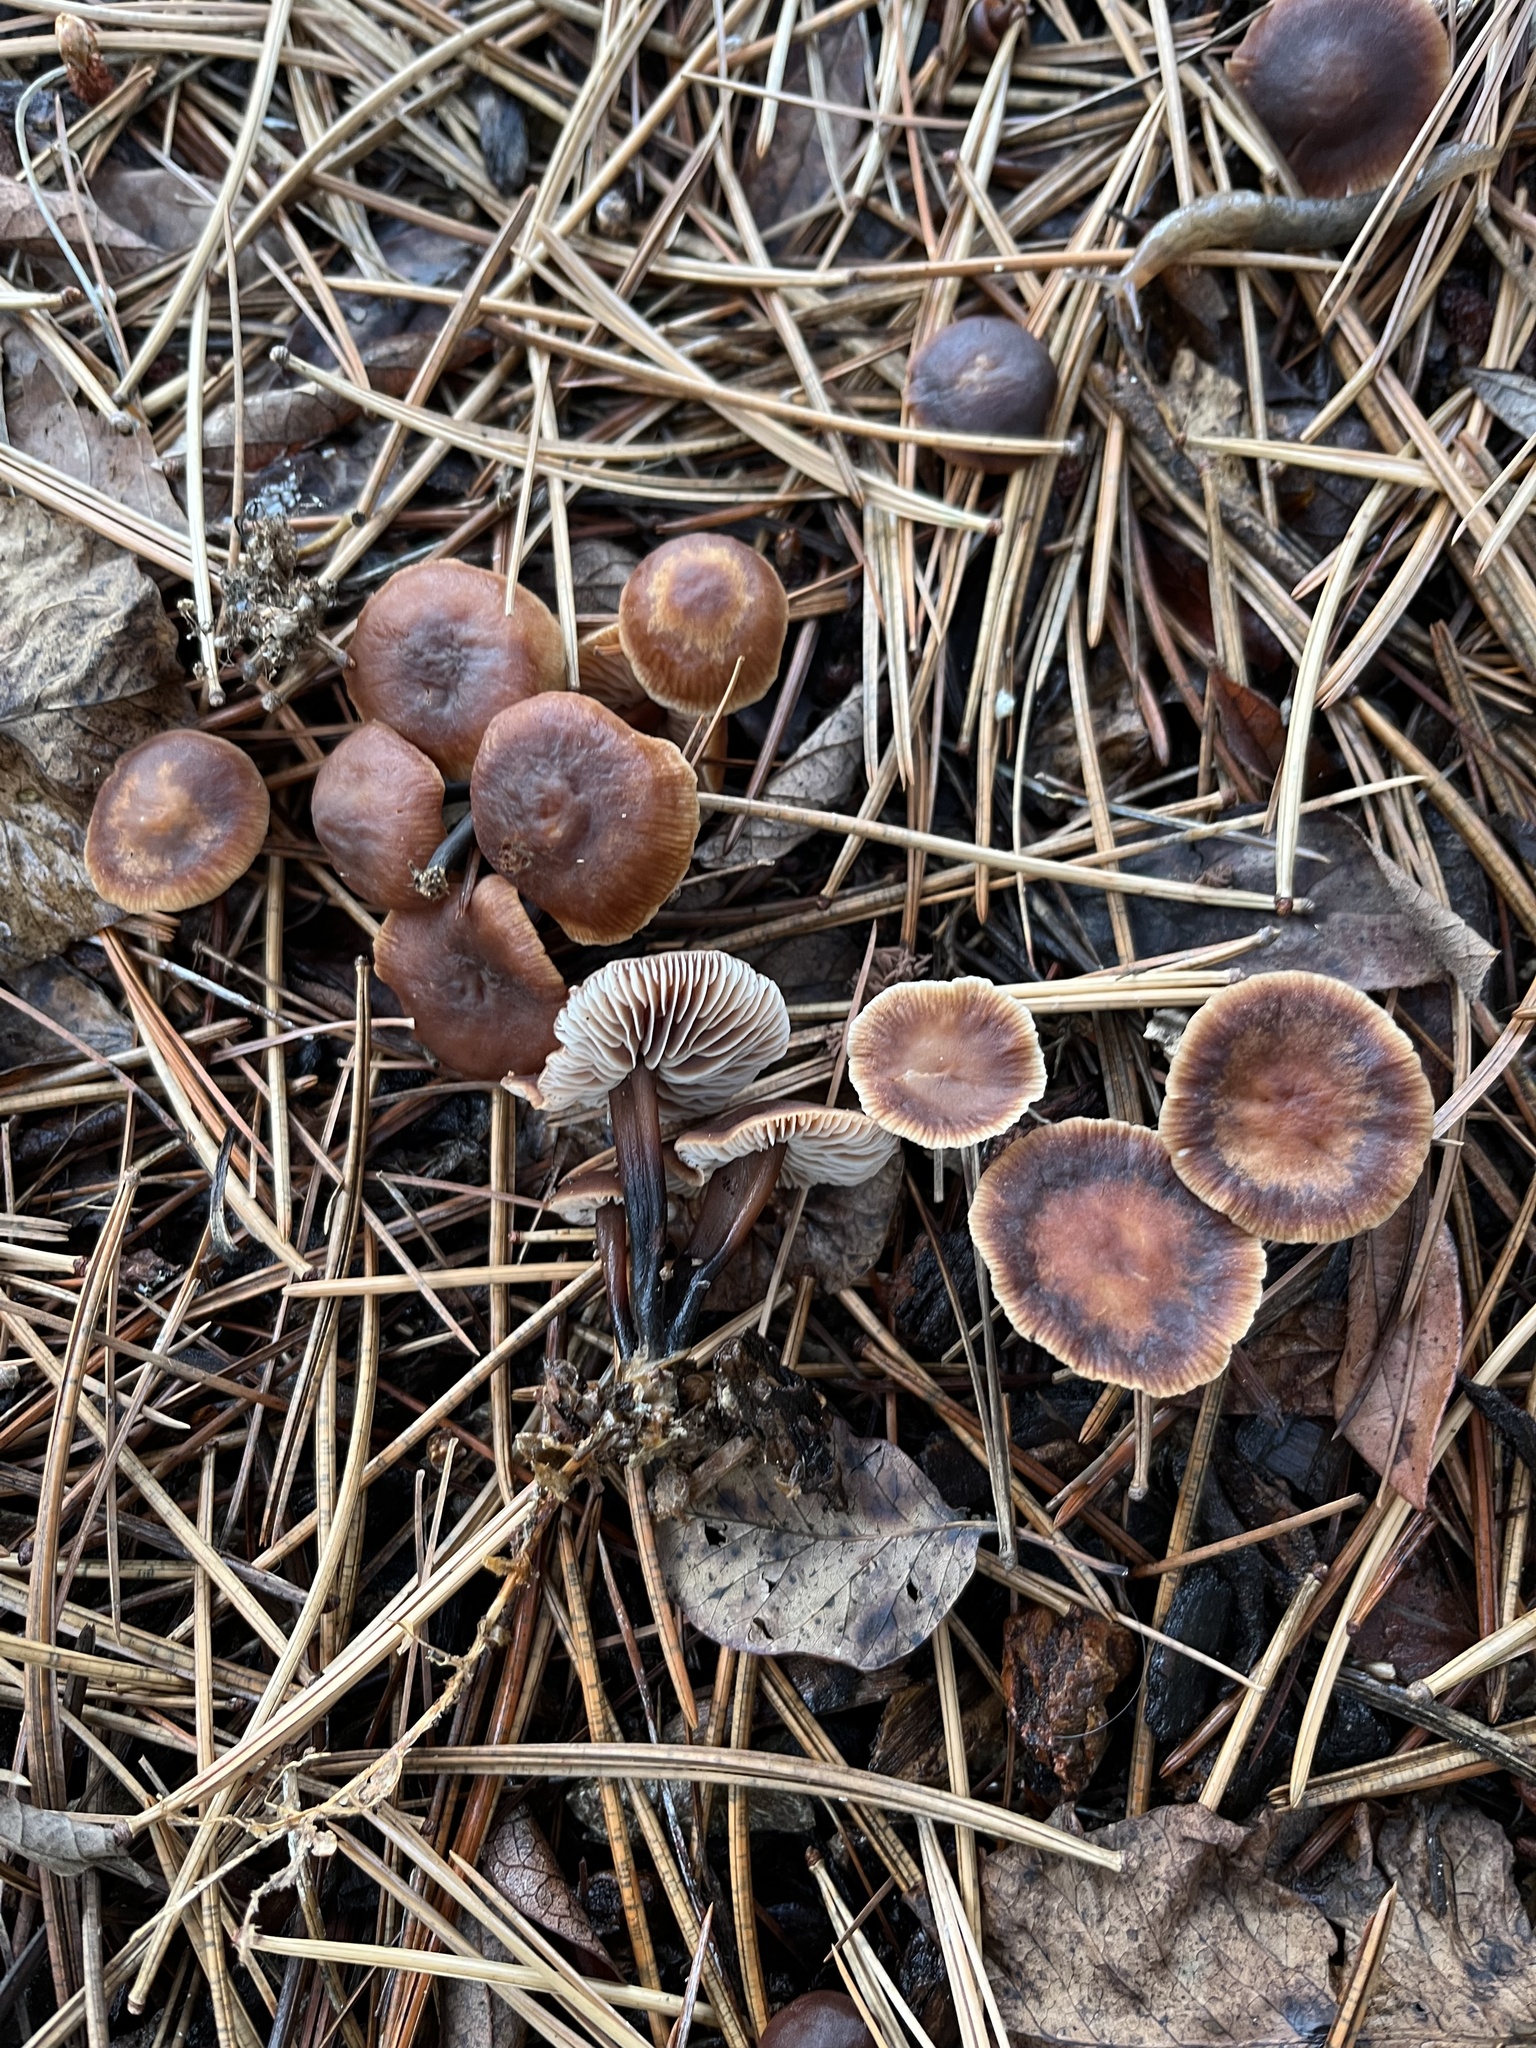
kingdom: Fungi
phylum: Basidiomycota
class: Agaricomycetes
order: Agaricales
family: Omphalotaceae
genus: Gymnopus
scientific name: Gymnopus brassicolens
